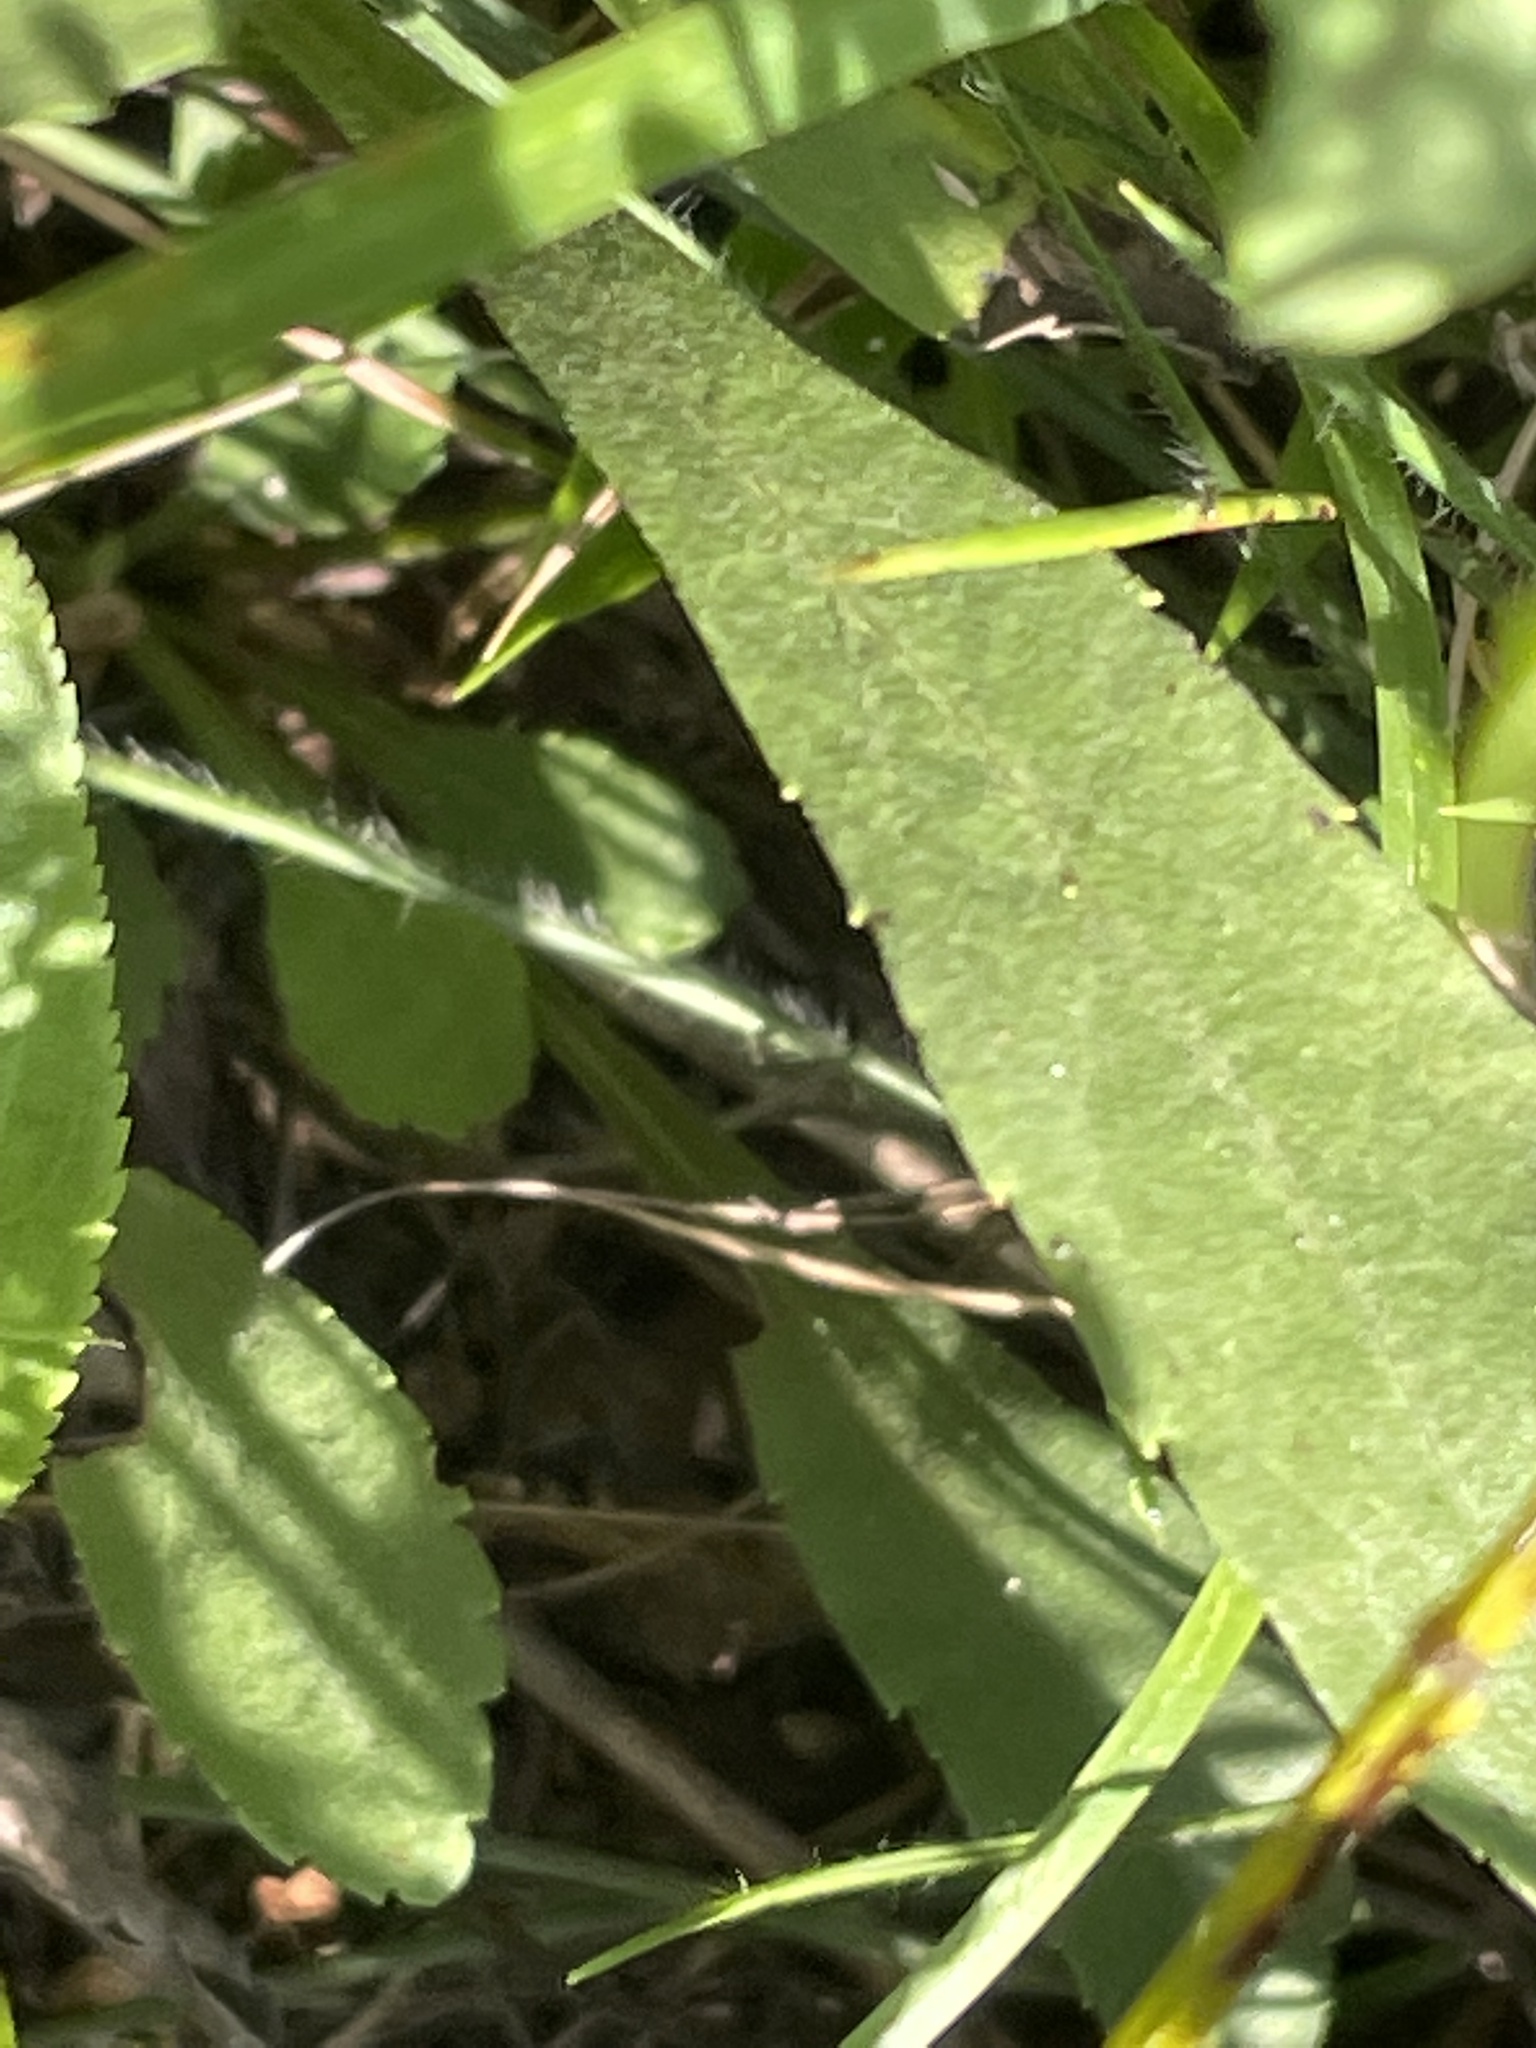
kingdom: Plantae
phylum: Tracheophyta
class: Magnoliopsida
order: Asterales
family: Asteraceae
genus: Solidago
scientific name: Solidago nemoralis
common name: Grey goldenrod
